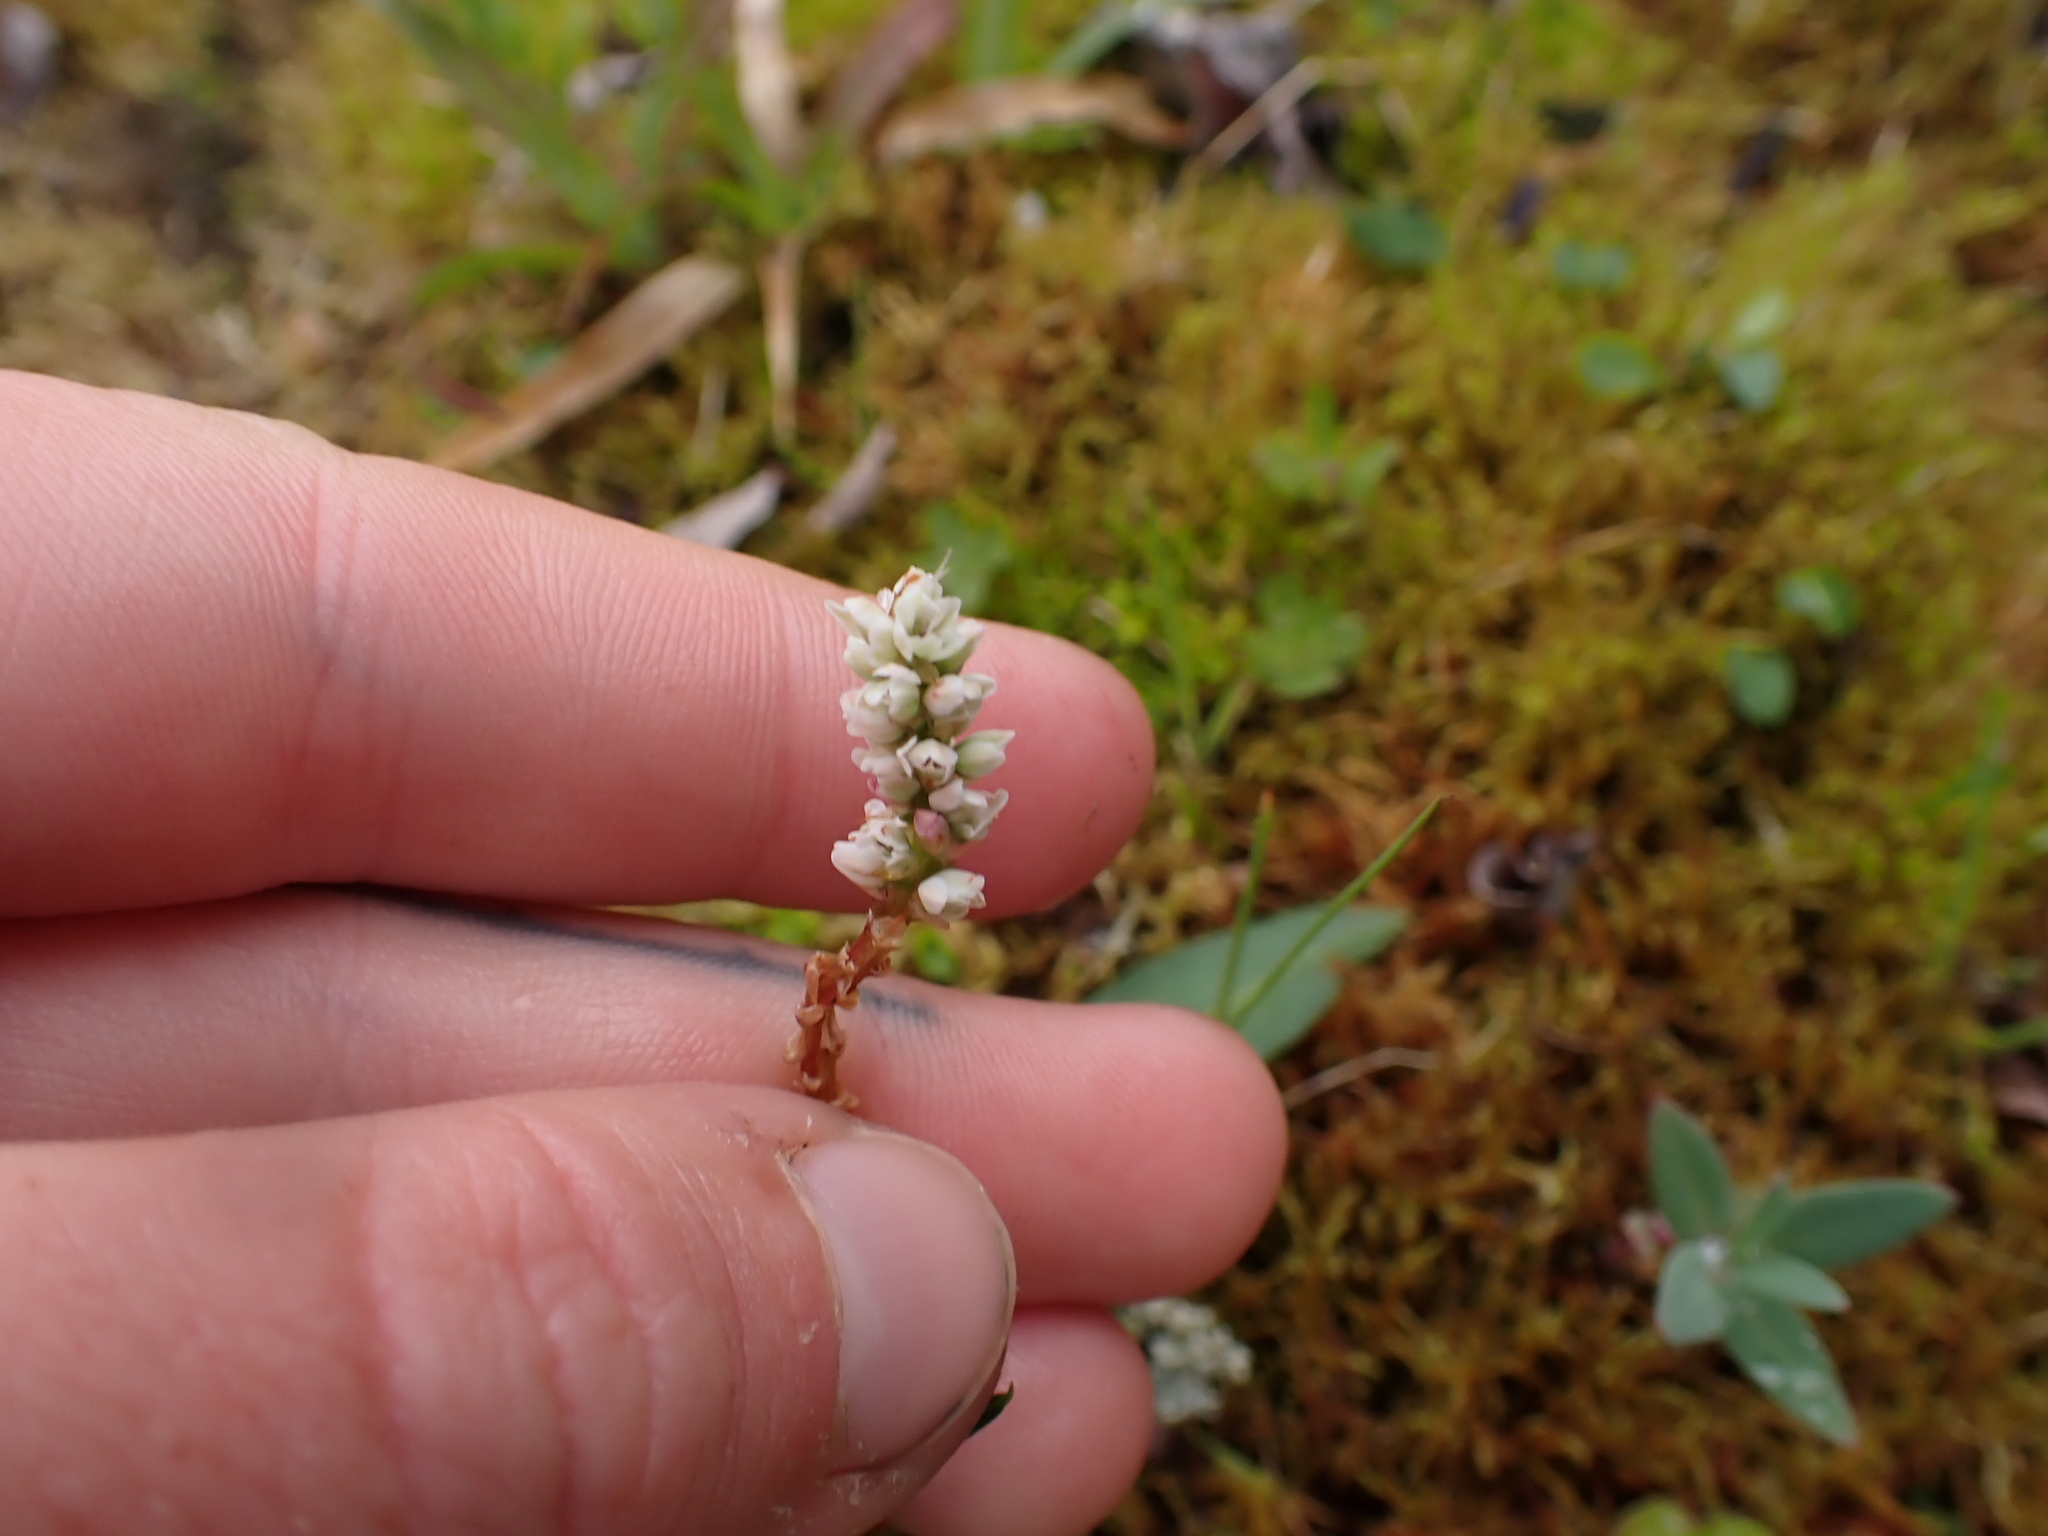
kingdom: Plantae
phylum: Tracheophyta
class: Magnoliopsida
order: Caryophyllales
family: Polygonaceae
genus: Bistorta
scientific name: Bistorta vivipara
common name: Alpine bistort
